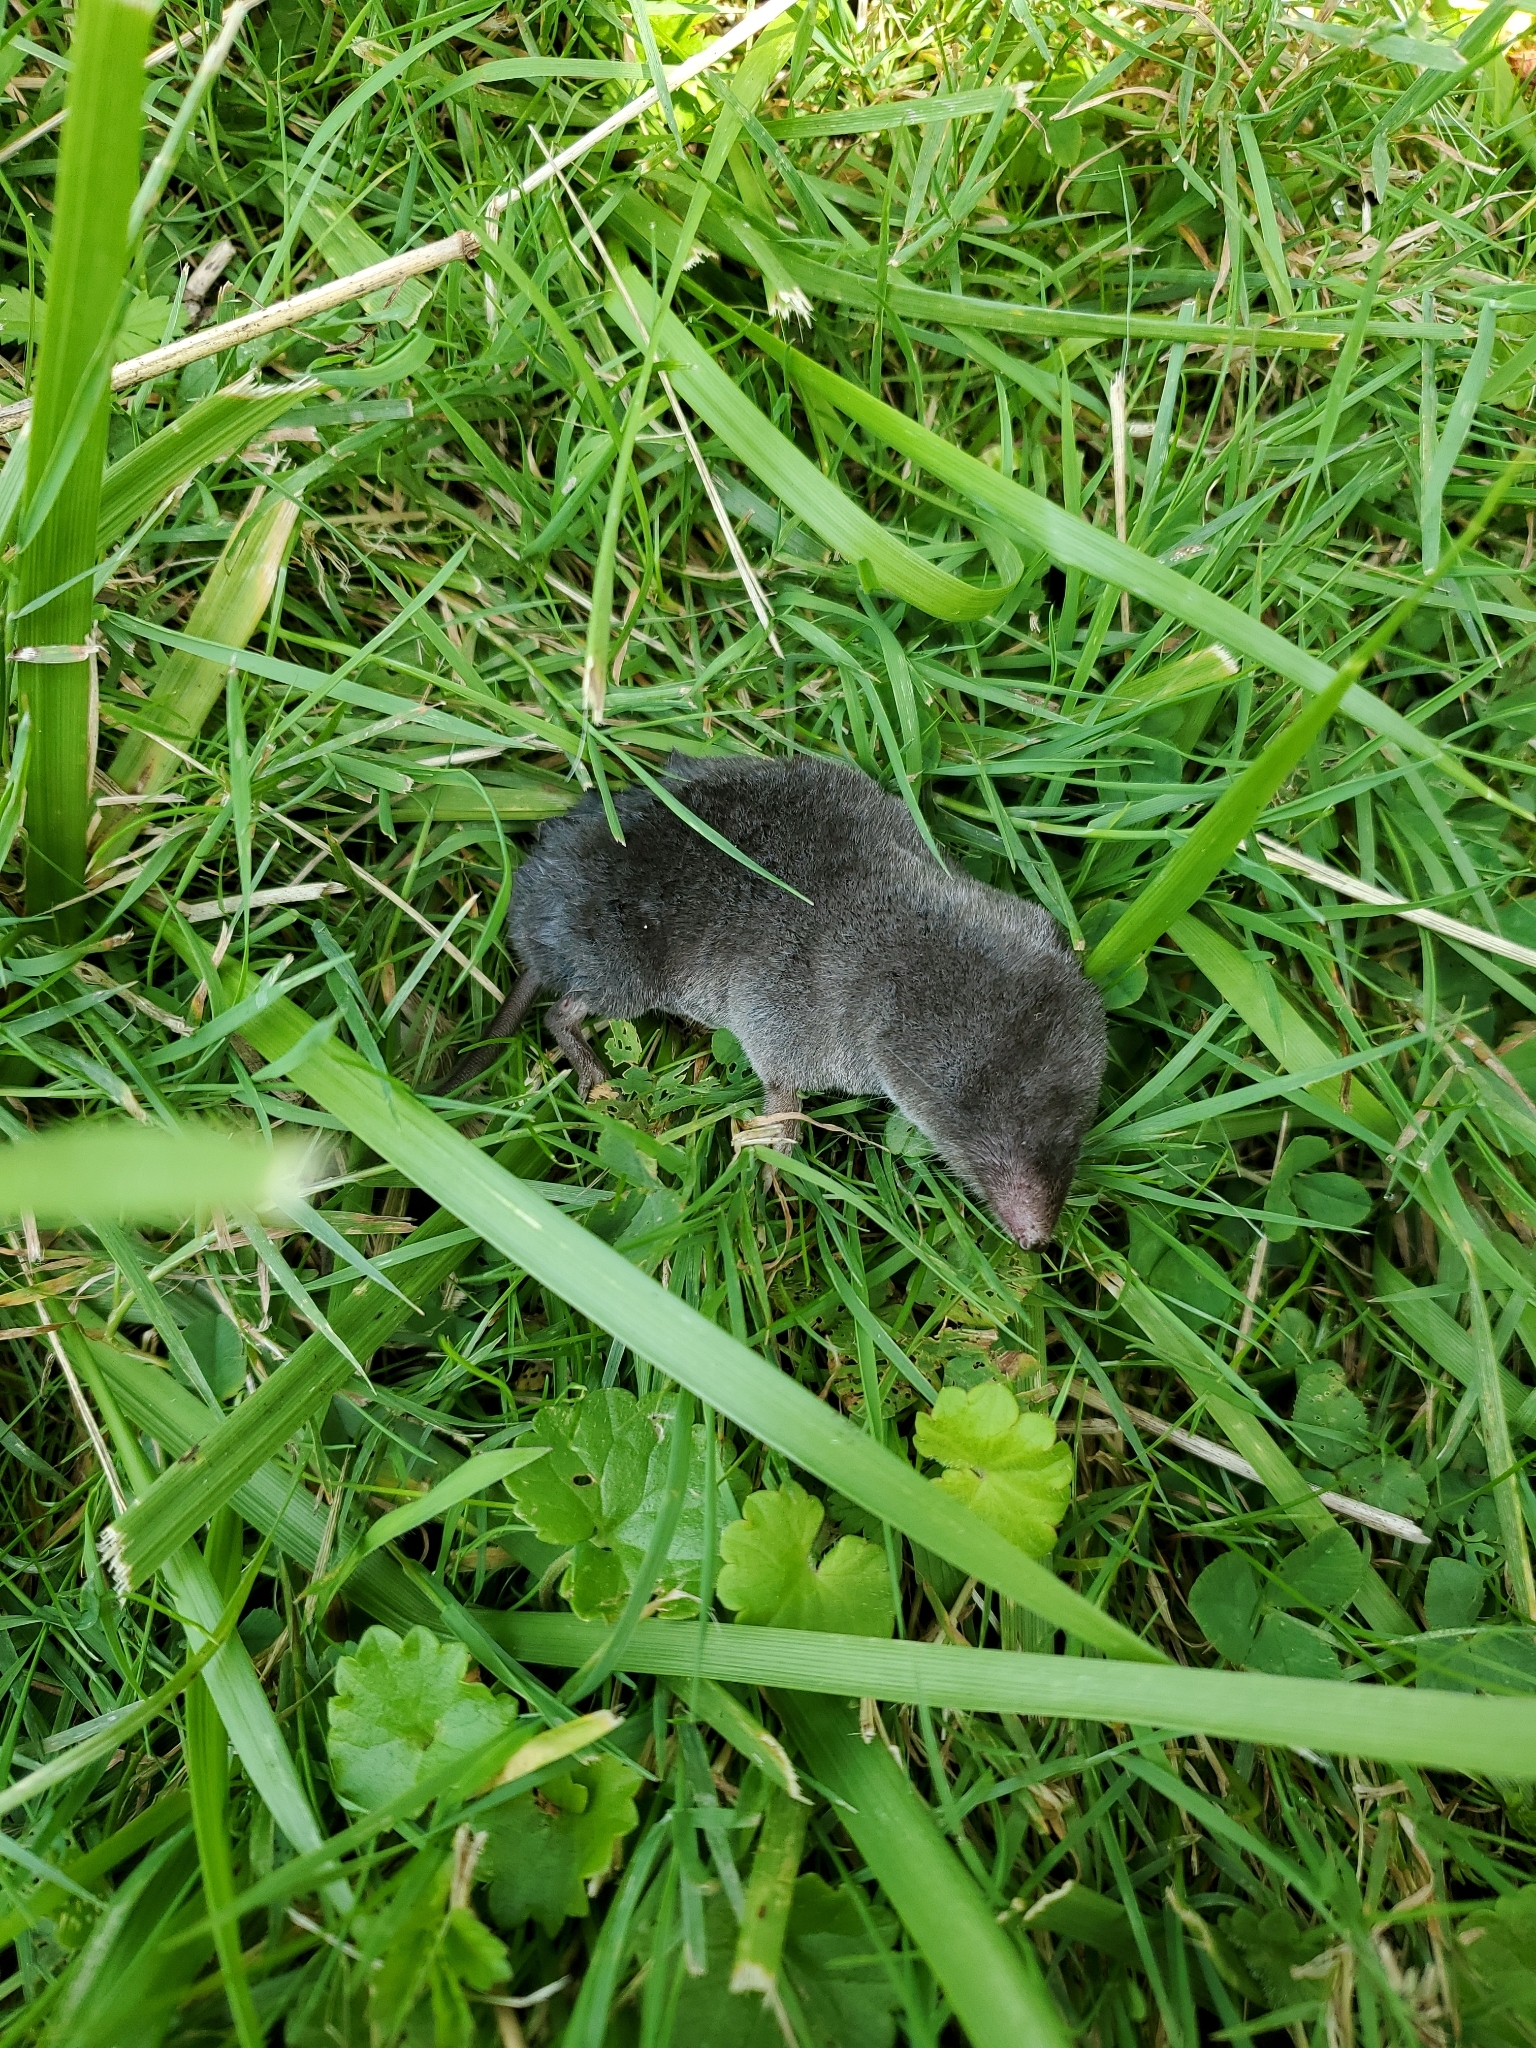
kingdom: Animalia
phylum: Chordata
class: Mammalia
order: Soricomorpha
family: Soricidae
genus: Blarina
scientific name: Blarina brevicauda
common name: Northern short-tailed shrew
